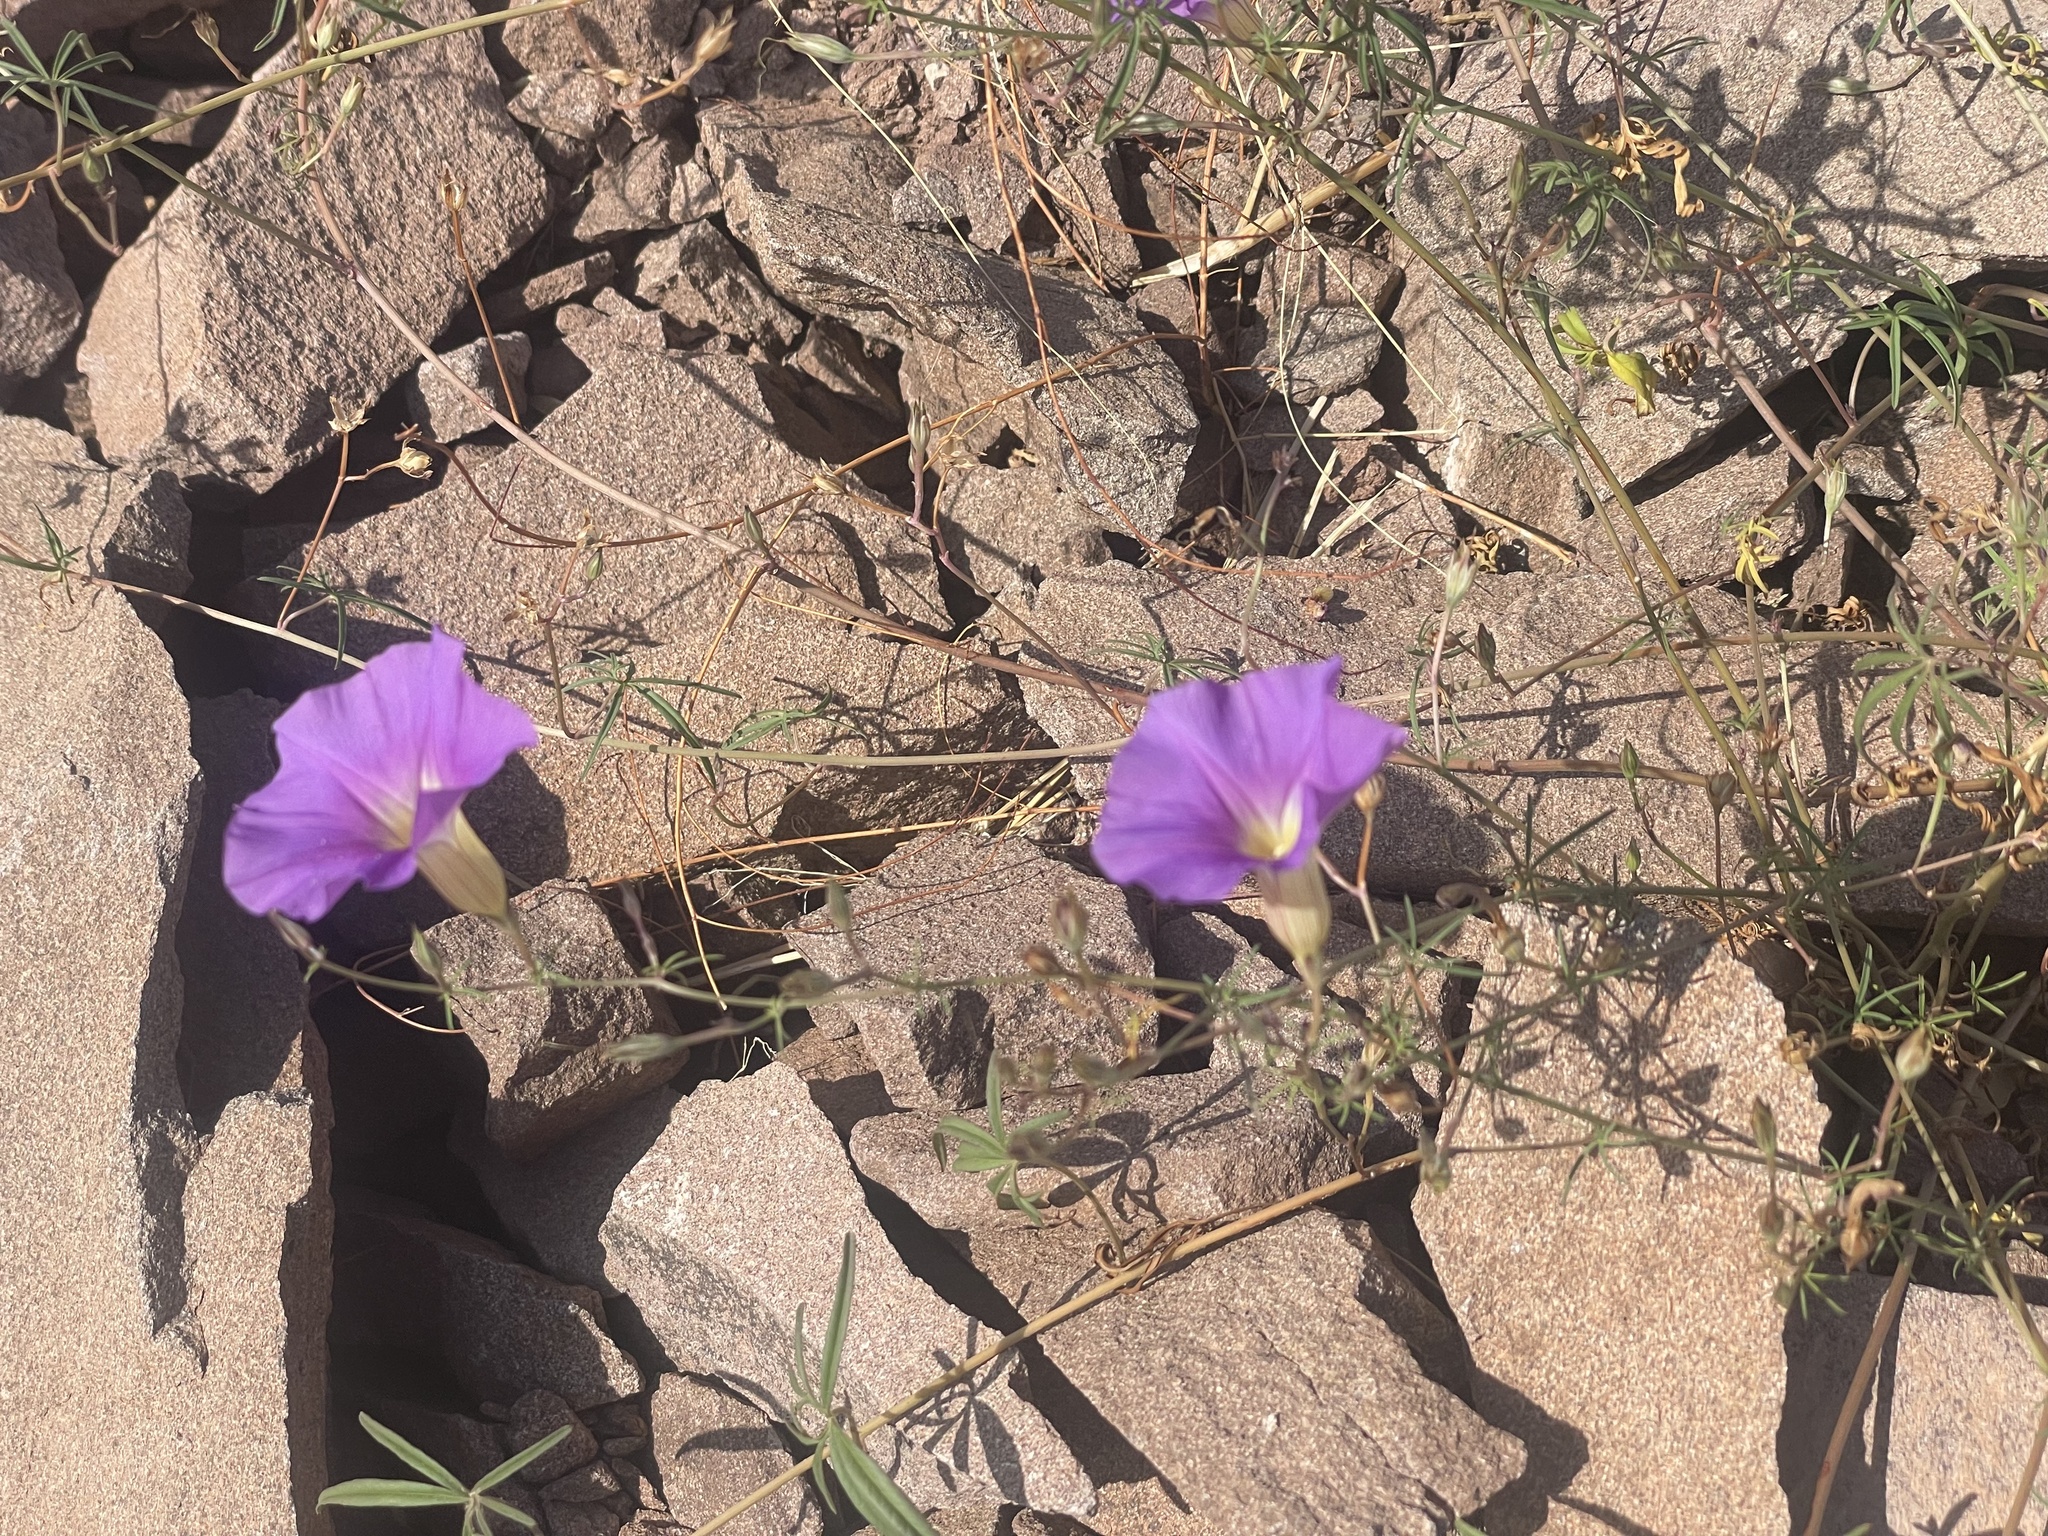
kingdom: Plantae
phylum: Tracheophyta
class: Magnoliopsida
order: Solanales
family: Convolvulaceae
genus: Ipomoea
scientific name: Ipomoea ternifolia
